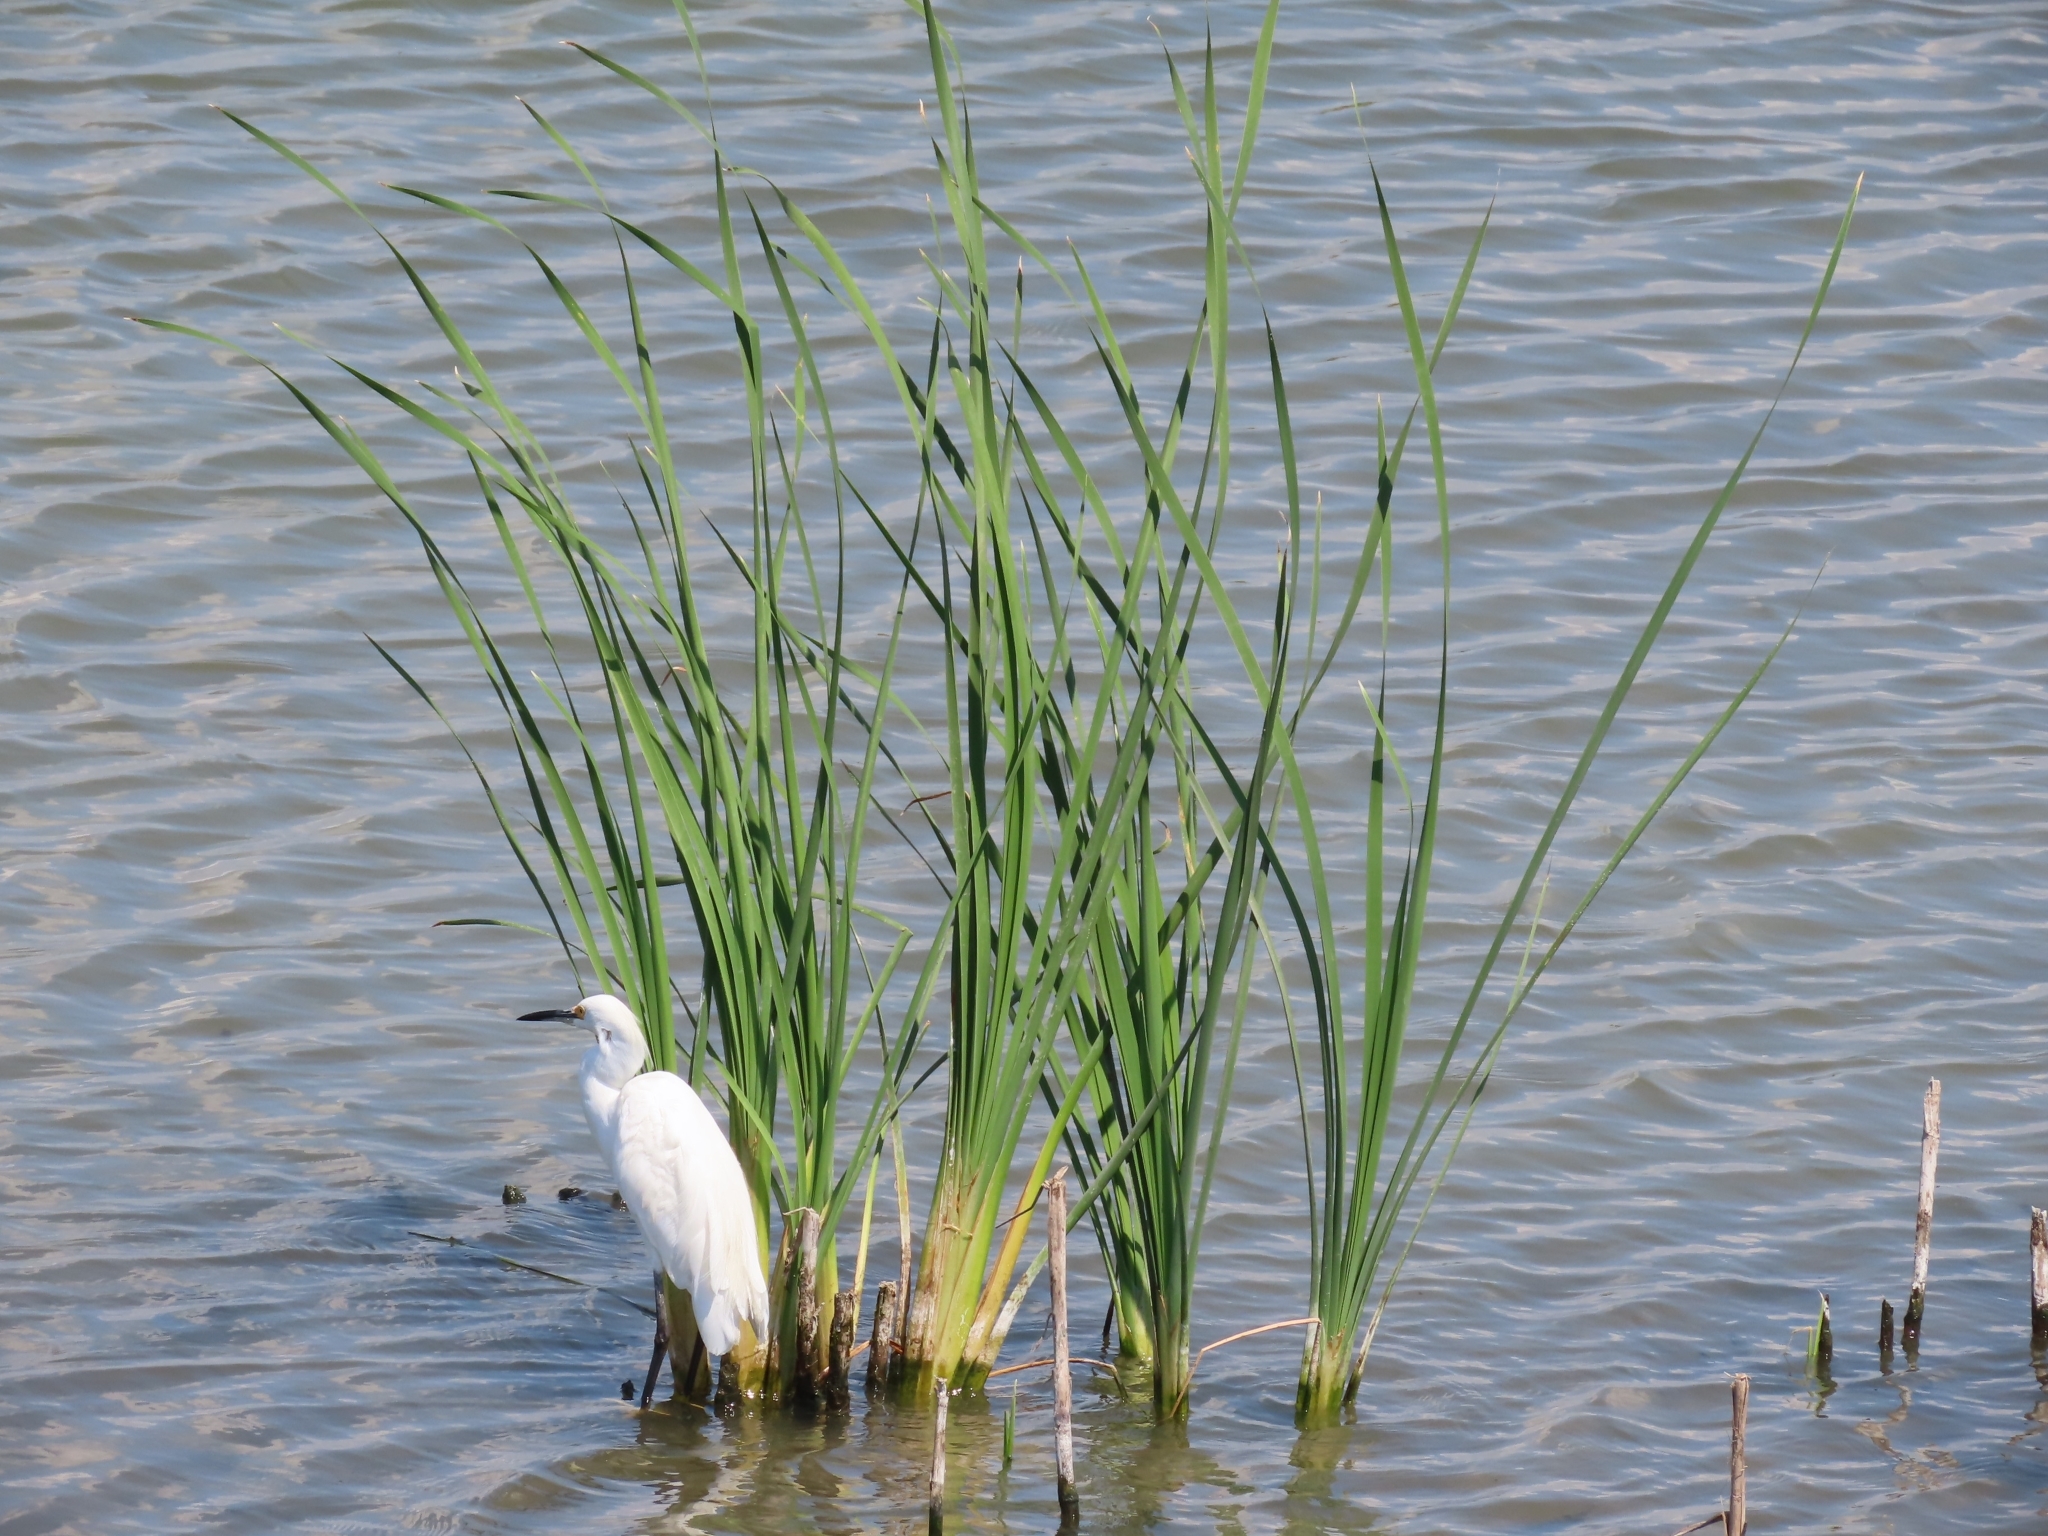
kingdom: Animalia
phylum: Chordata
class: Aves
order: Pelecaniformes
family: Ardeidae
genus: Egretta
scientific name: Egretta thula
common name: Snowy egret
